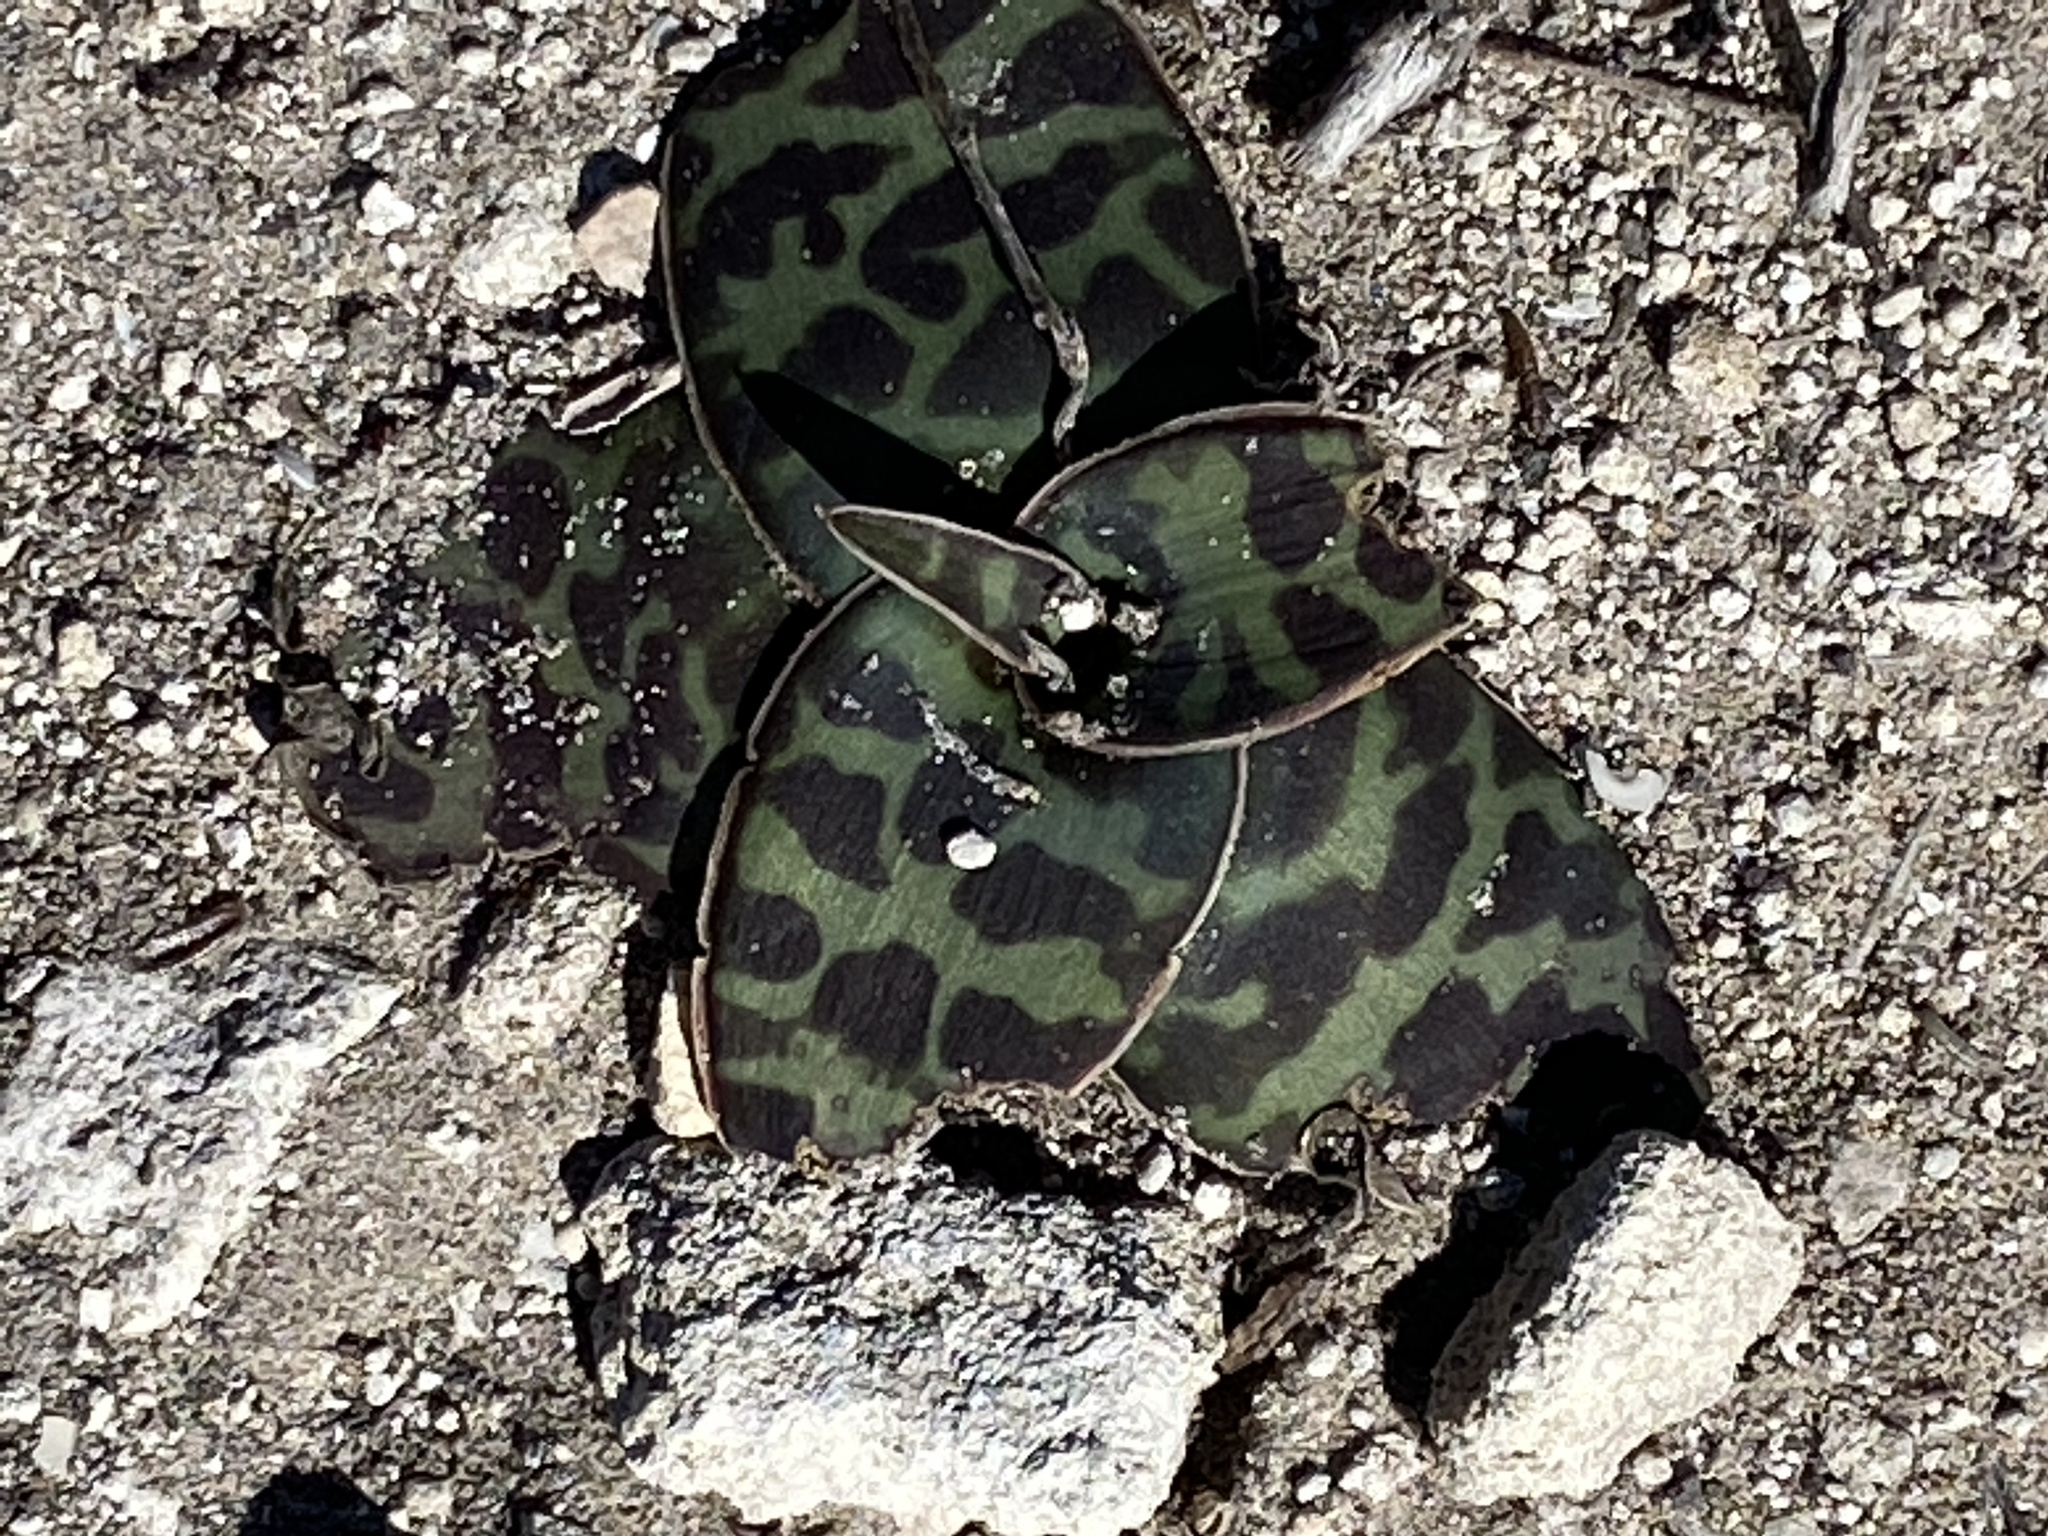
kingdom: Plantae
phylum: Tracheophyta
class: Liliopsida
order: Asparagales
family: Asparagaceae
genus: Ledebouria
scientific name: Ledebouria revoluta
